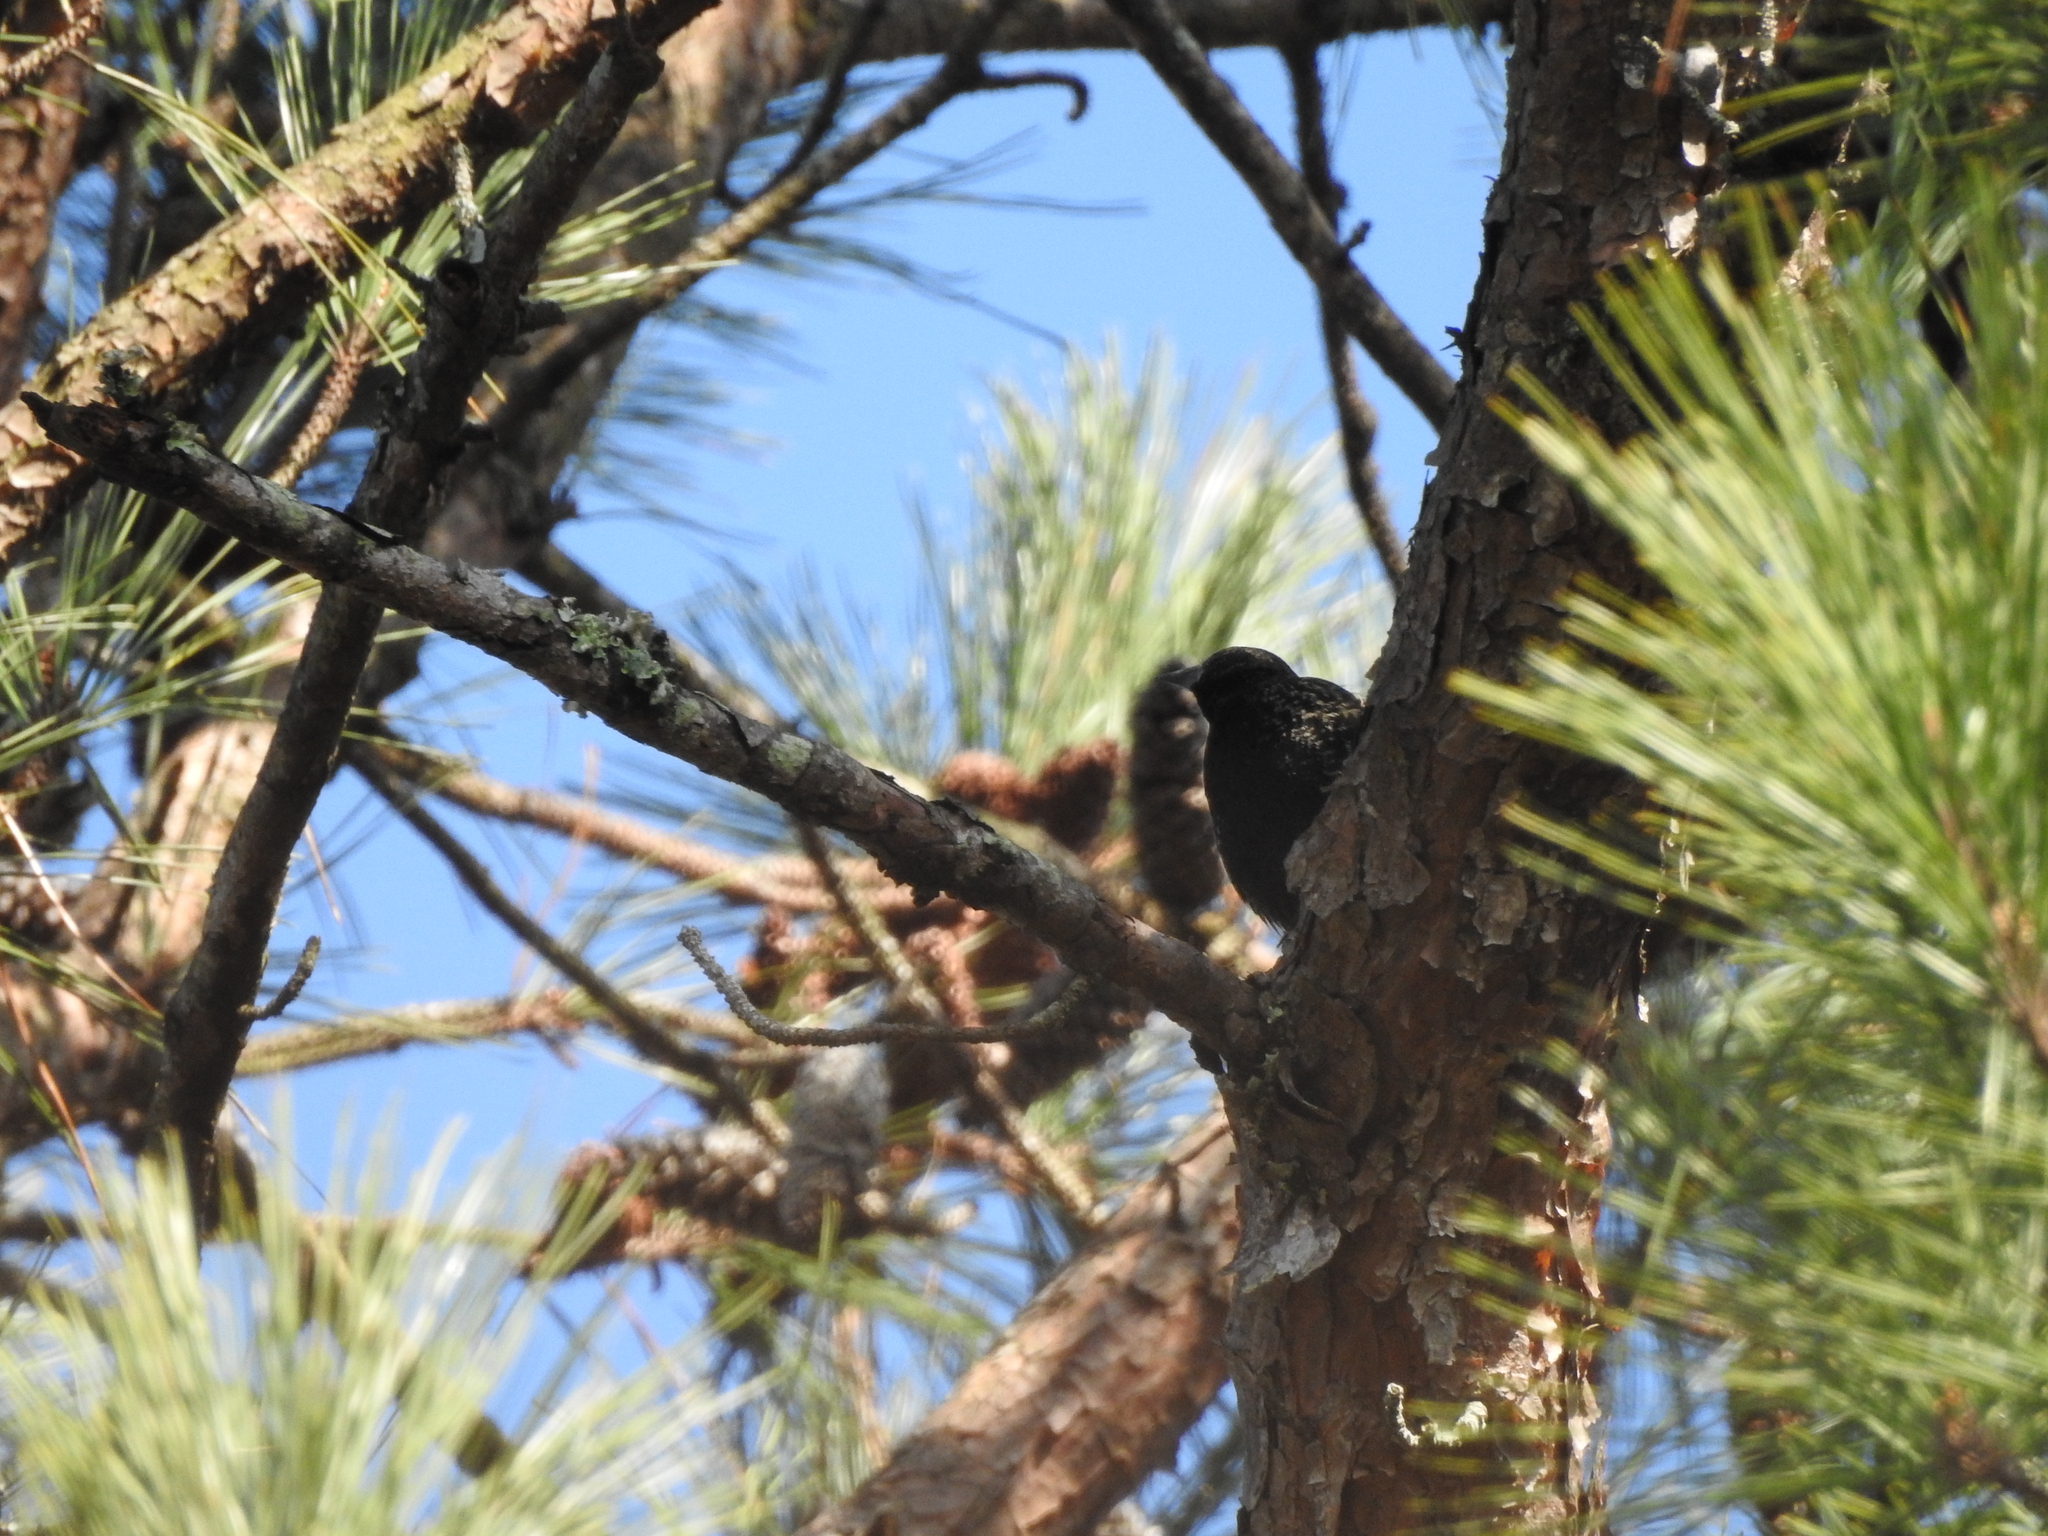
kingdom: Animalia
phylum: Chordata
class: Aves
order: Passeriformes
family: Icteridae
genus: Agelaius
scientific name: Agelaius phoeniceus
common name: Red-winged blackbird
